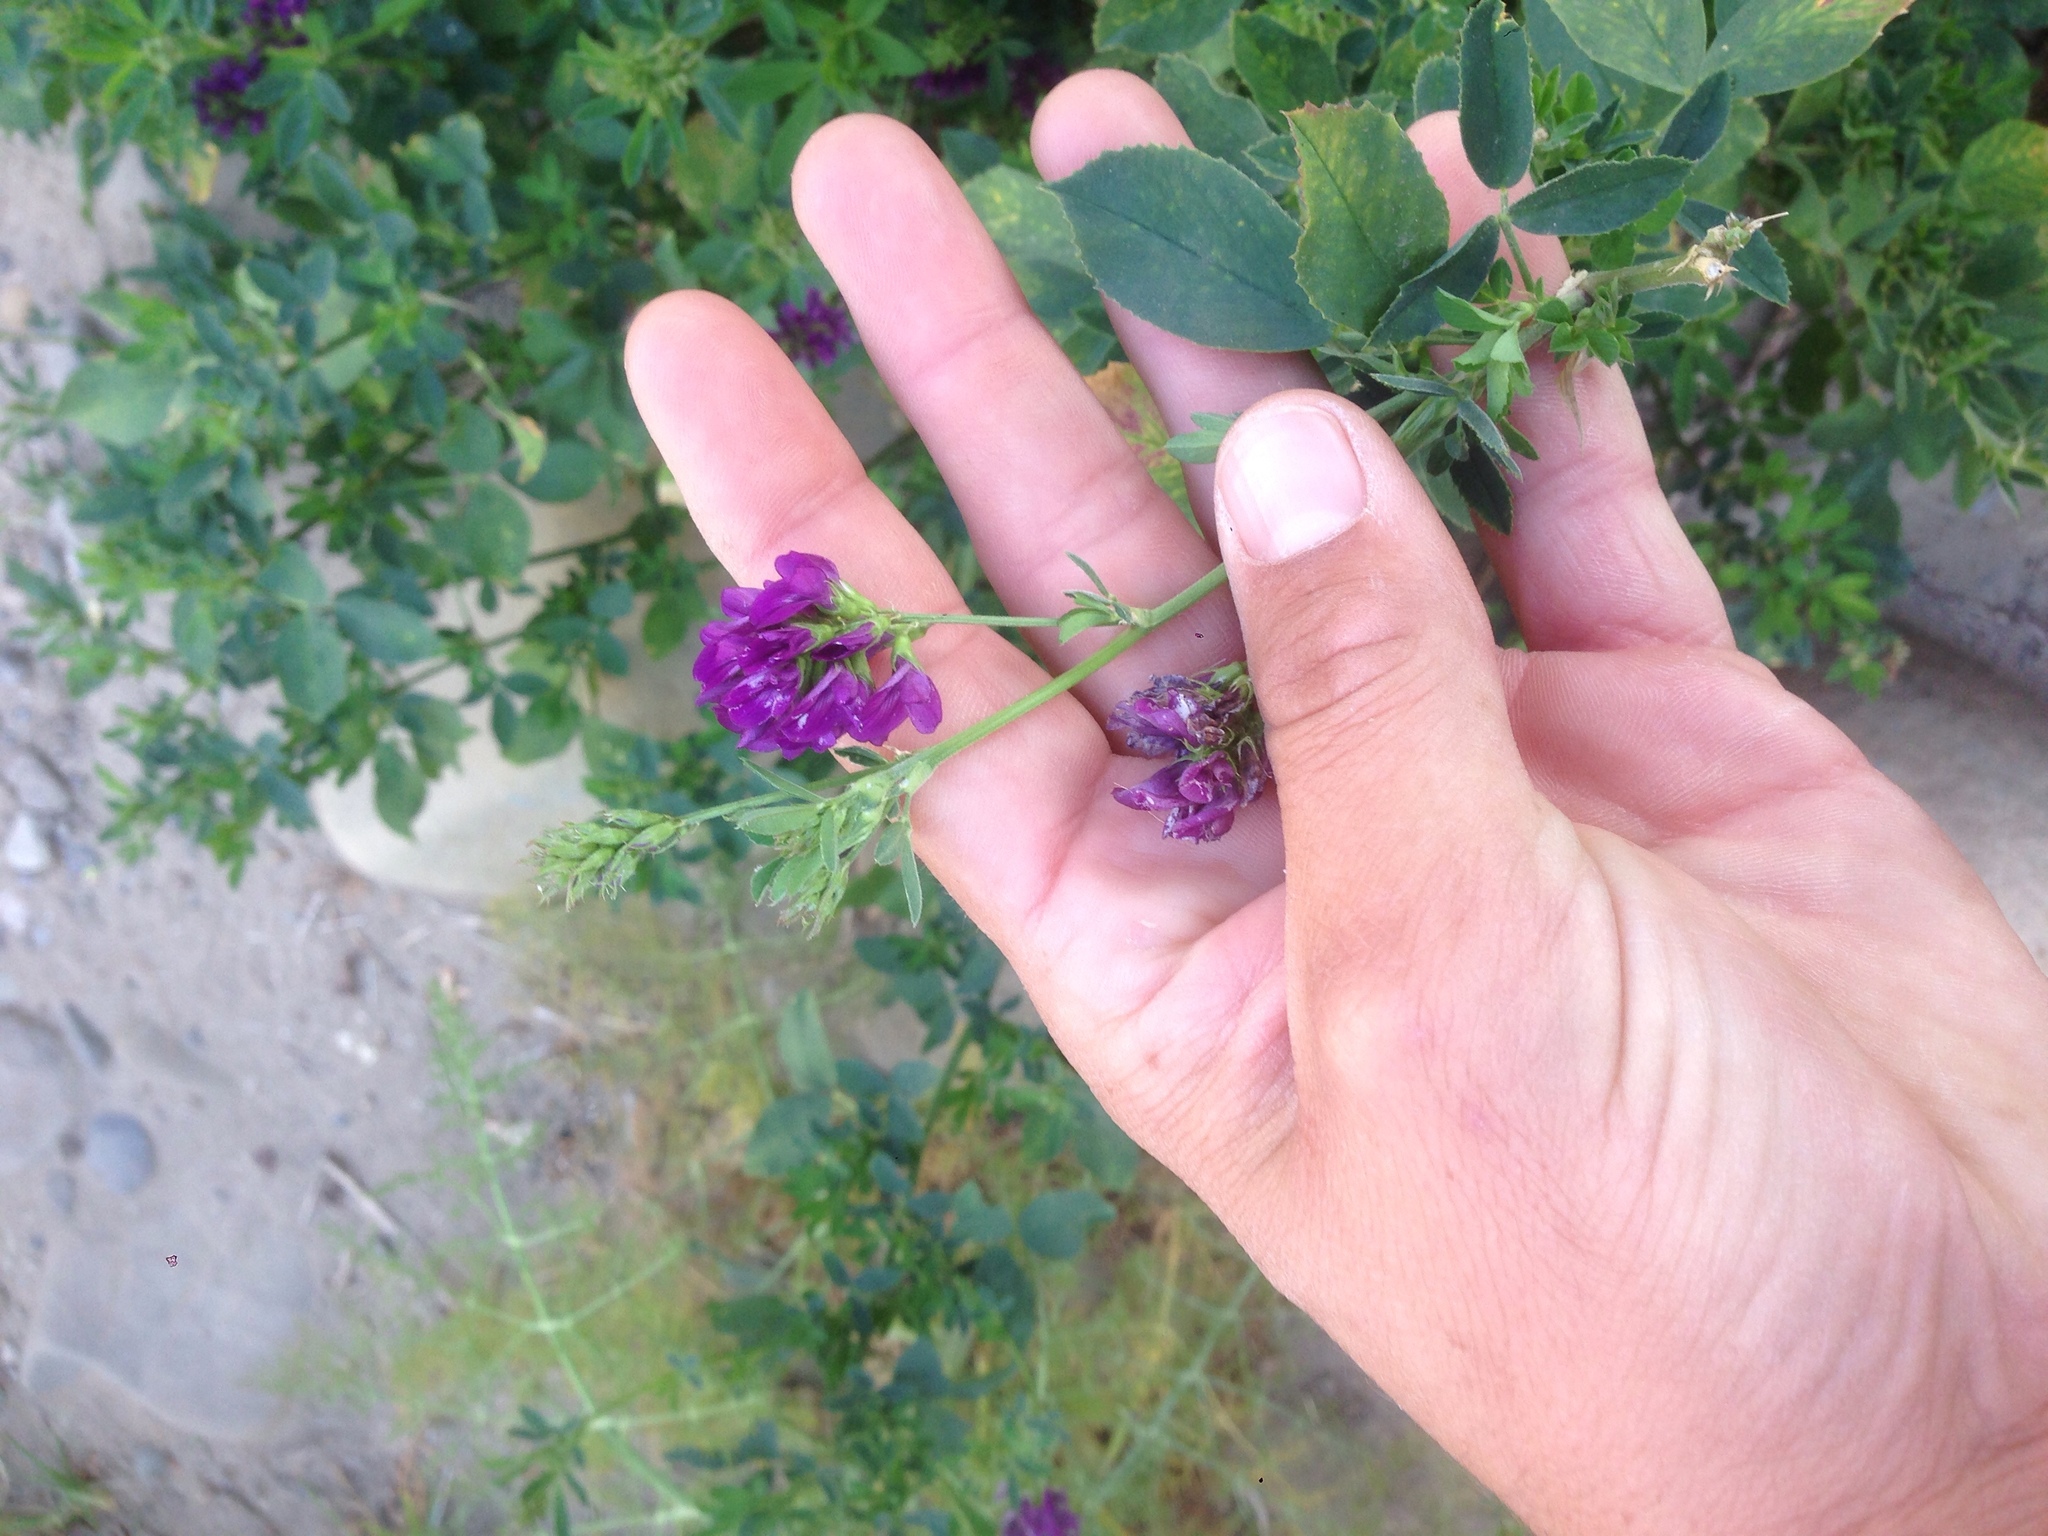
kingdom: Plantae
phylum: Tracheophyta
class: Magnoliopsida
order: Fabales
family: Fabaceae
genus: Medicago
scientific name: Medicago sativa
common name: Alfalfa
